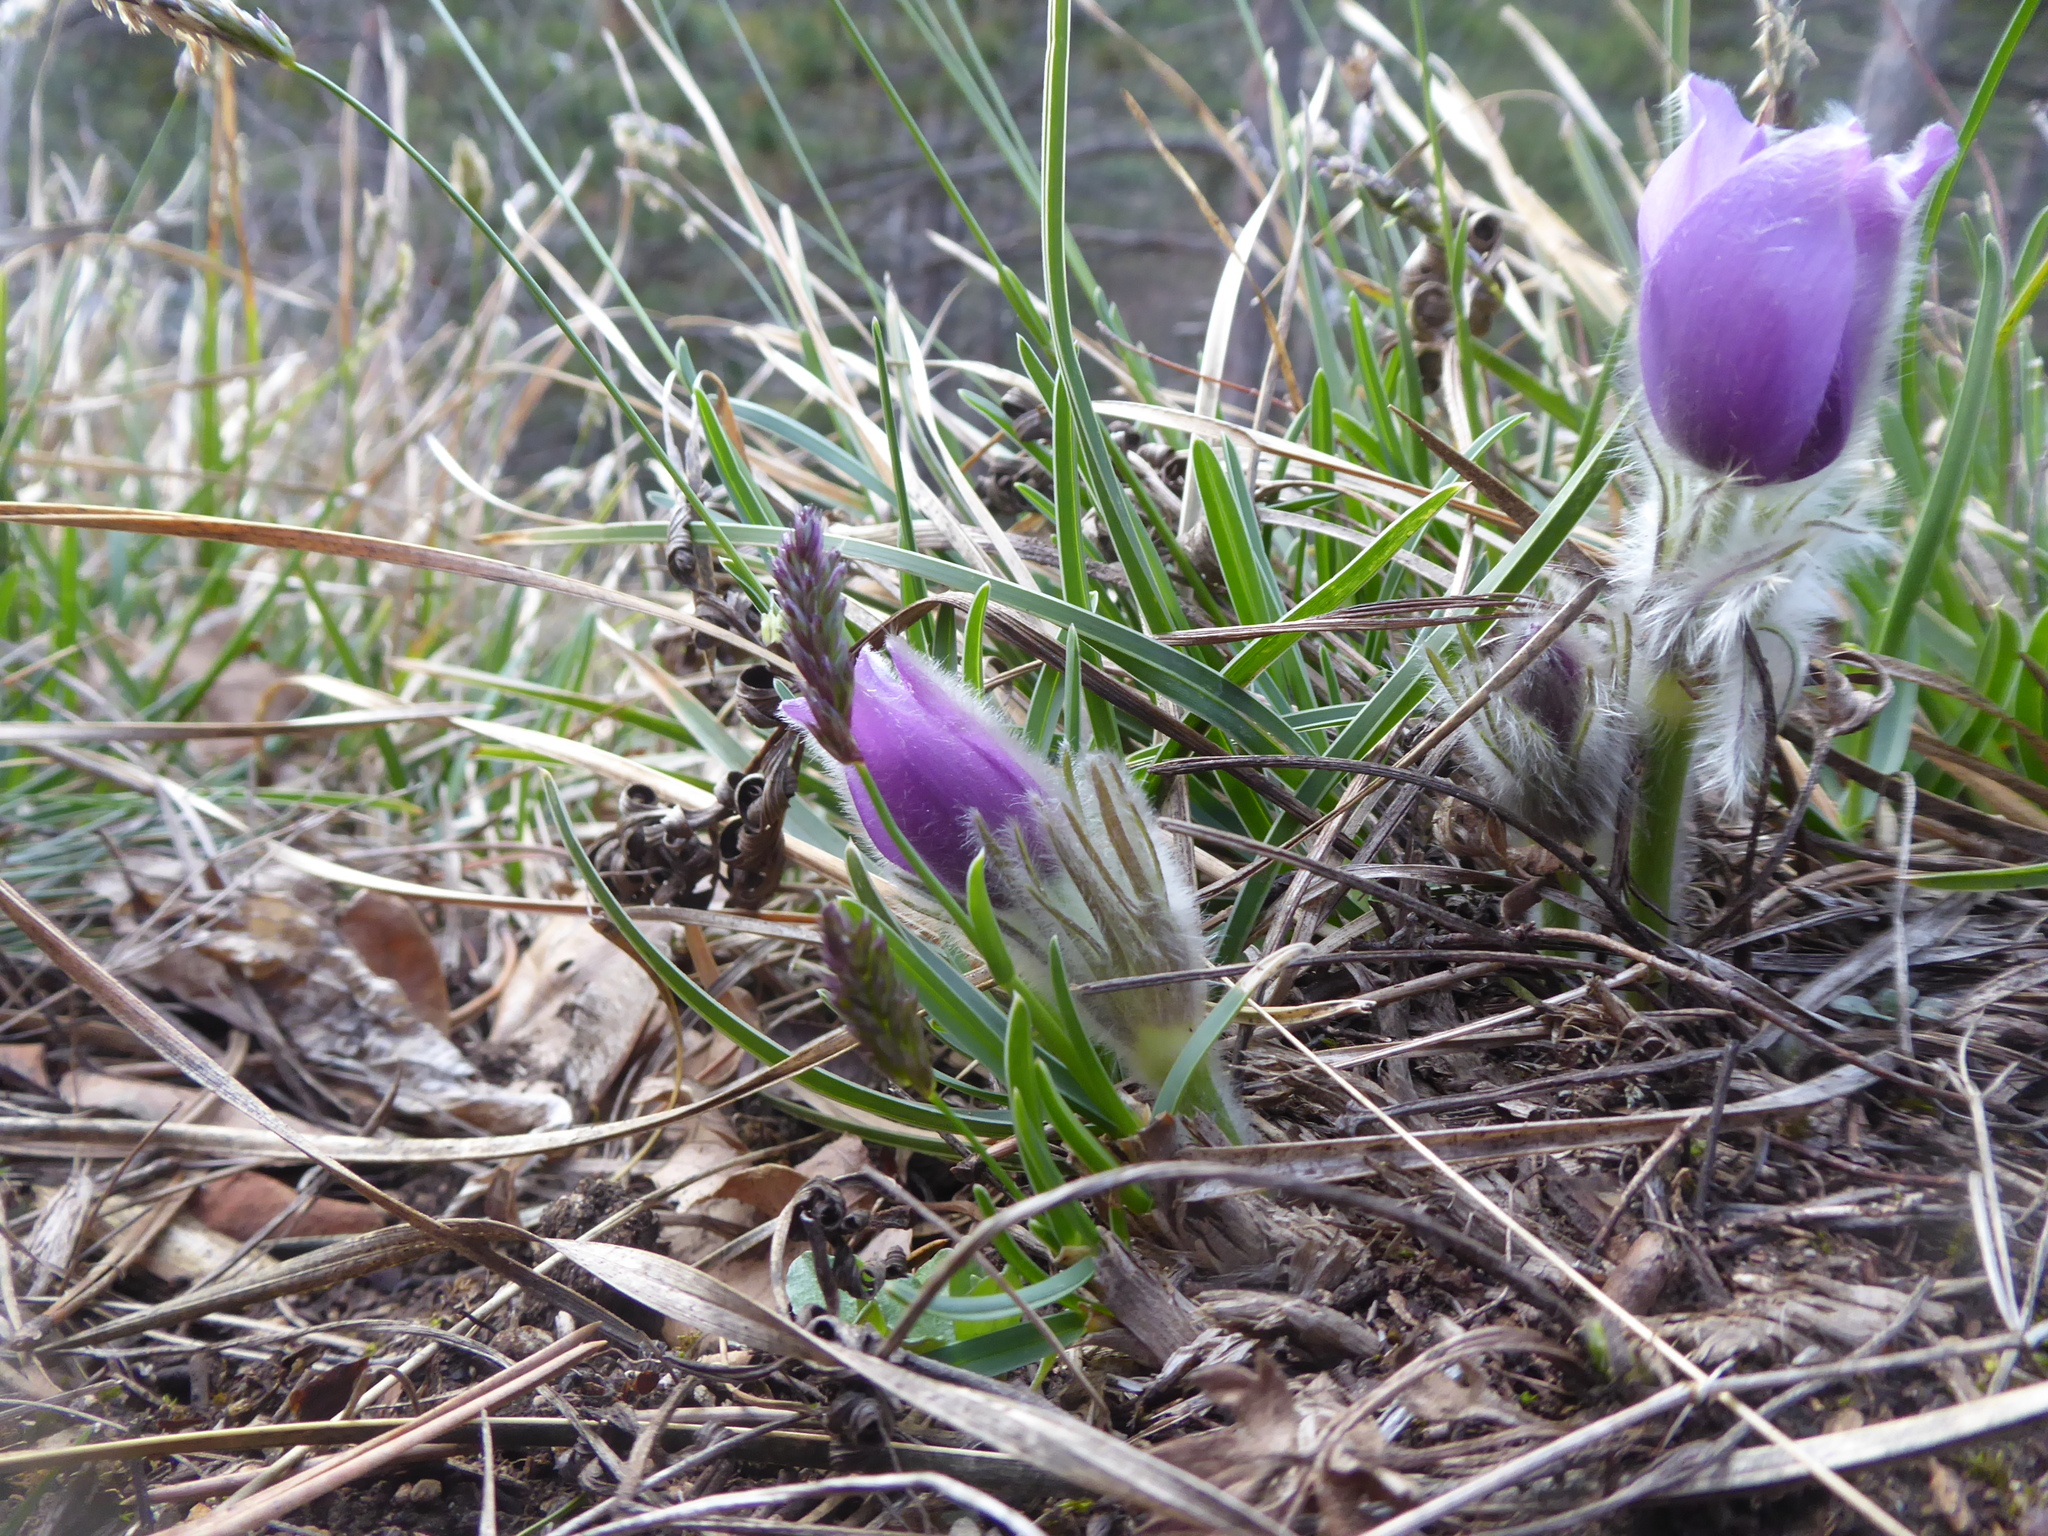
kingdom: Plantae
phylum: Tracheophyta
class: Magnoliopsida
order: Ranunculales
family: Ranunculaceae
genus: Pulsatilla
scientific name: Pulsatilla grandis
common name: Greater pasque flower
